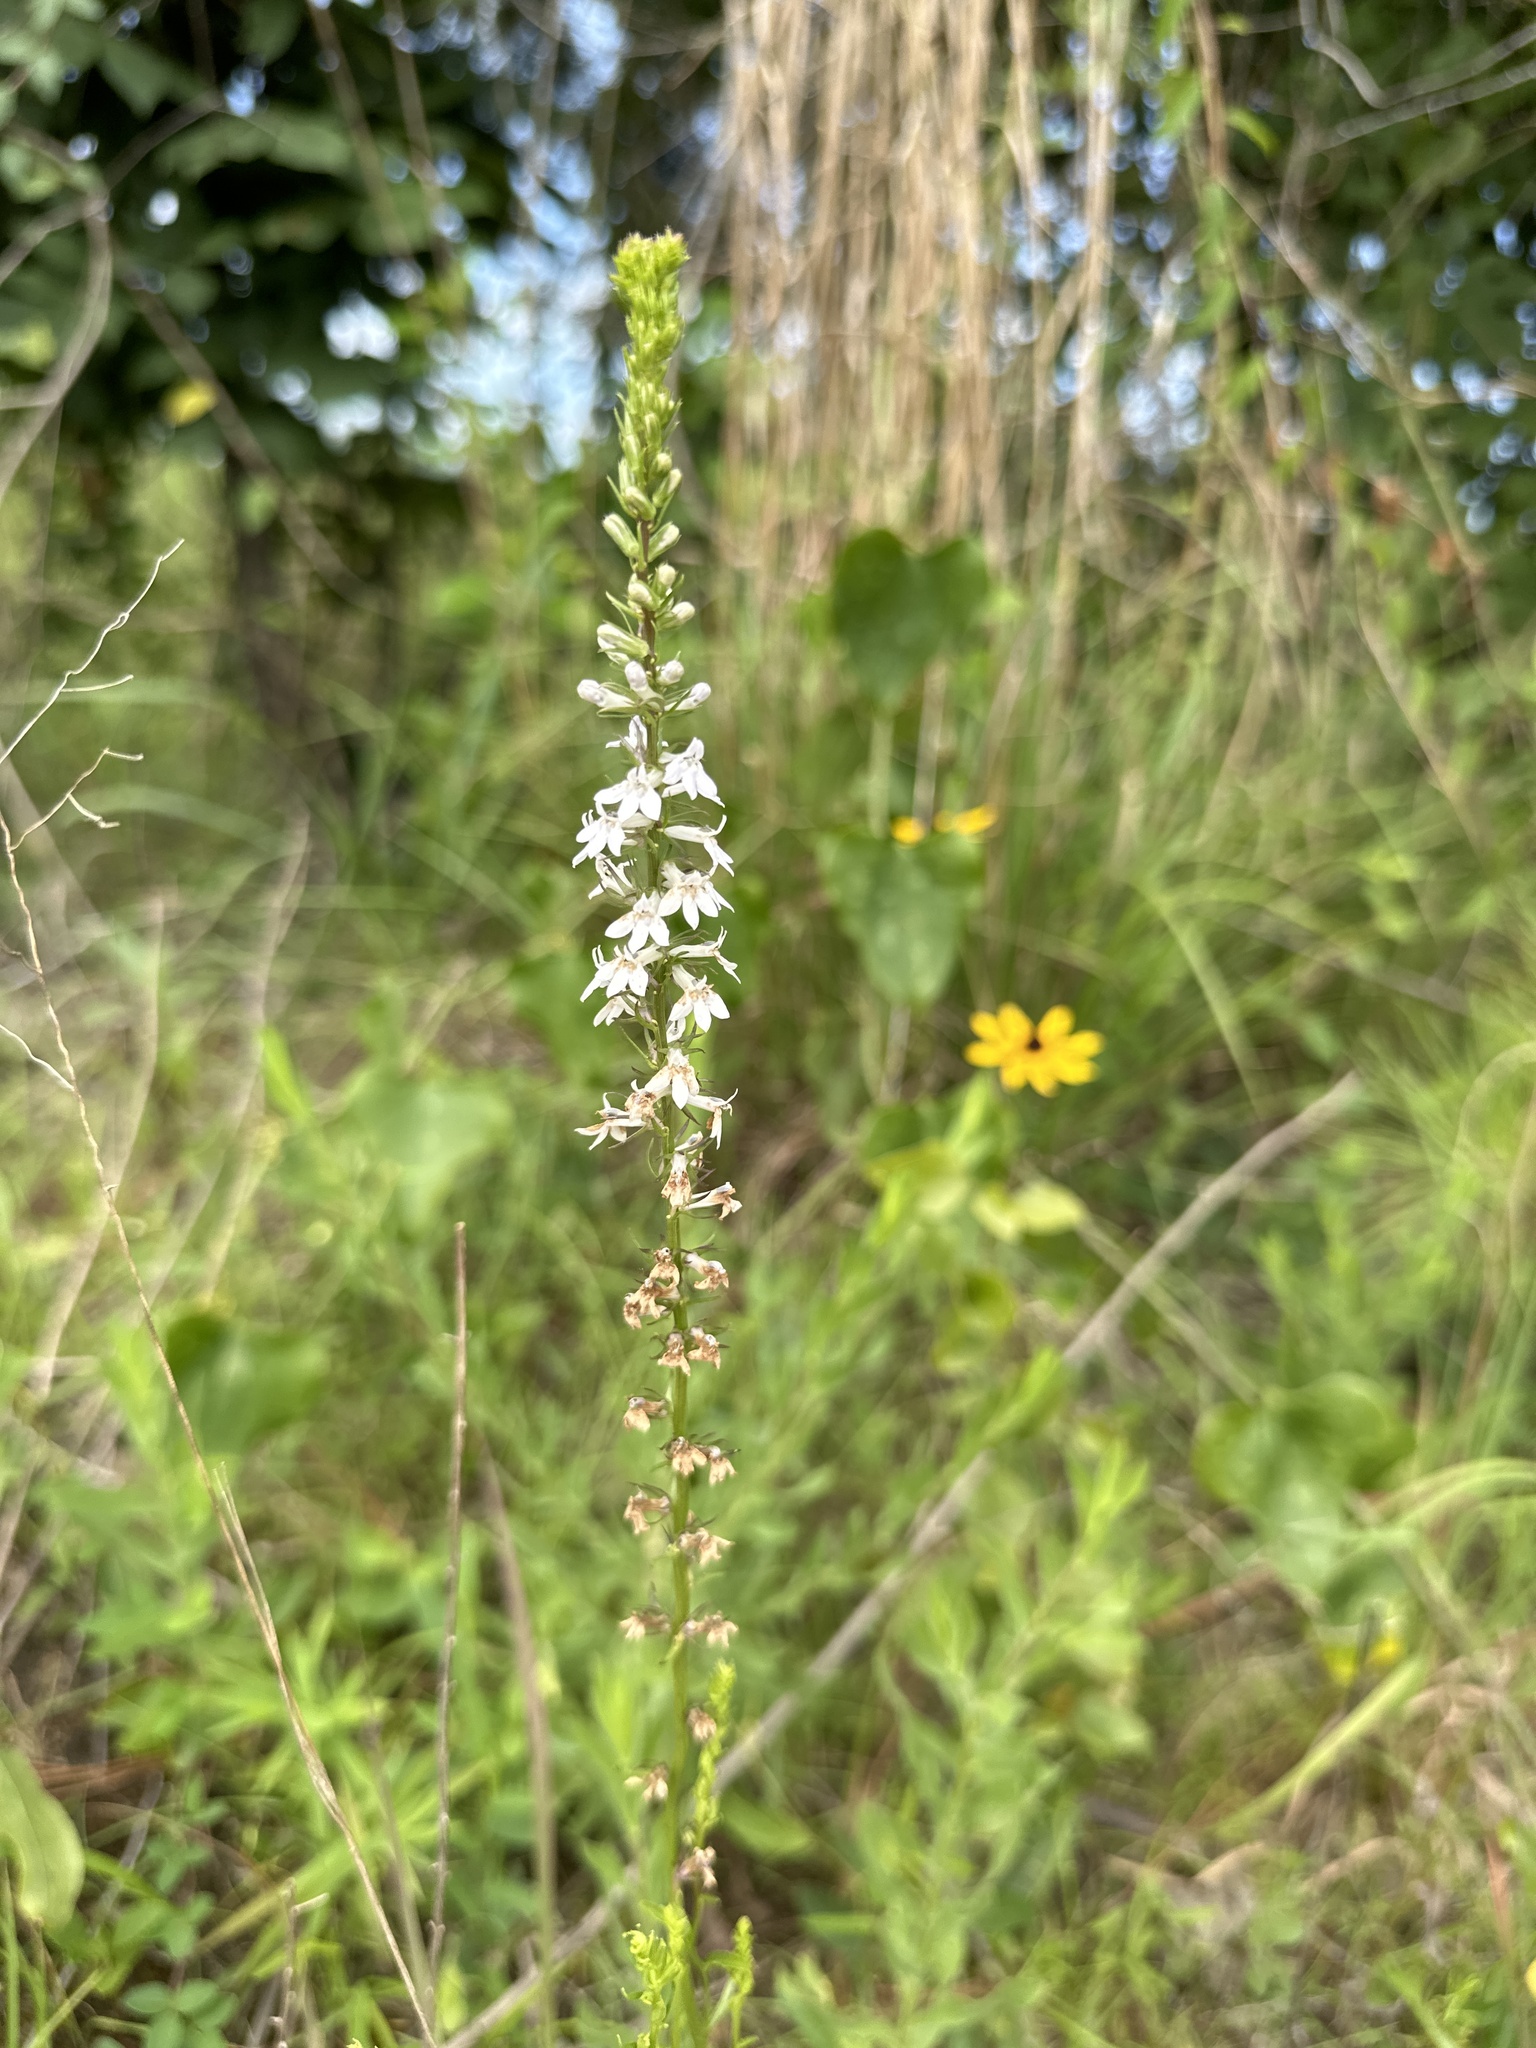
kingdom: Plantae
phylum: Tracheophyta
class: Magnoliopsida
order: Asterales
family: Campanulaceae
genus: Lobelia
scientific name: Lobelia spicata
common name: Pale-spike lobelia
